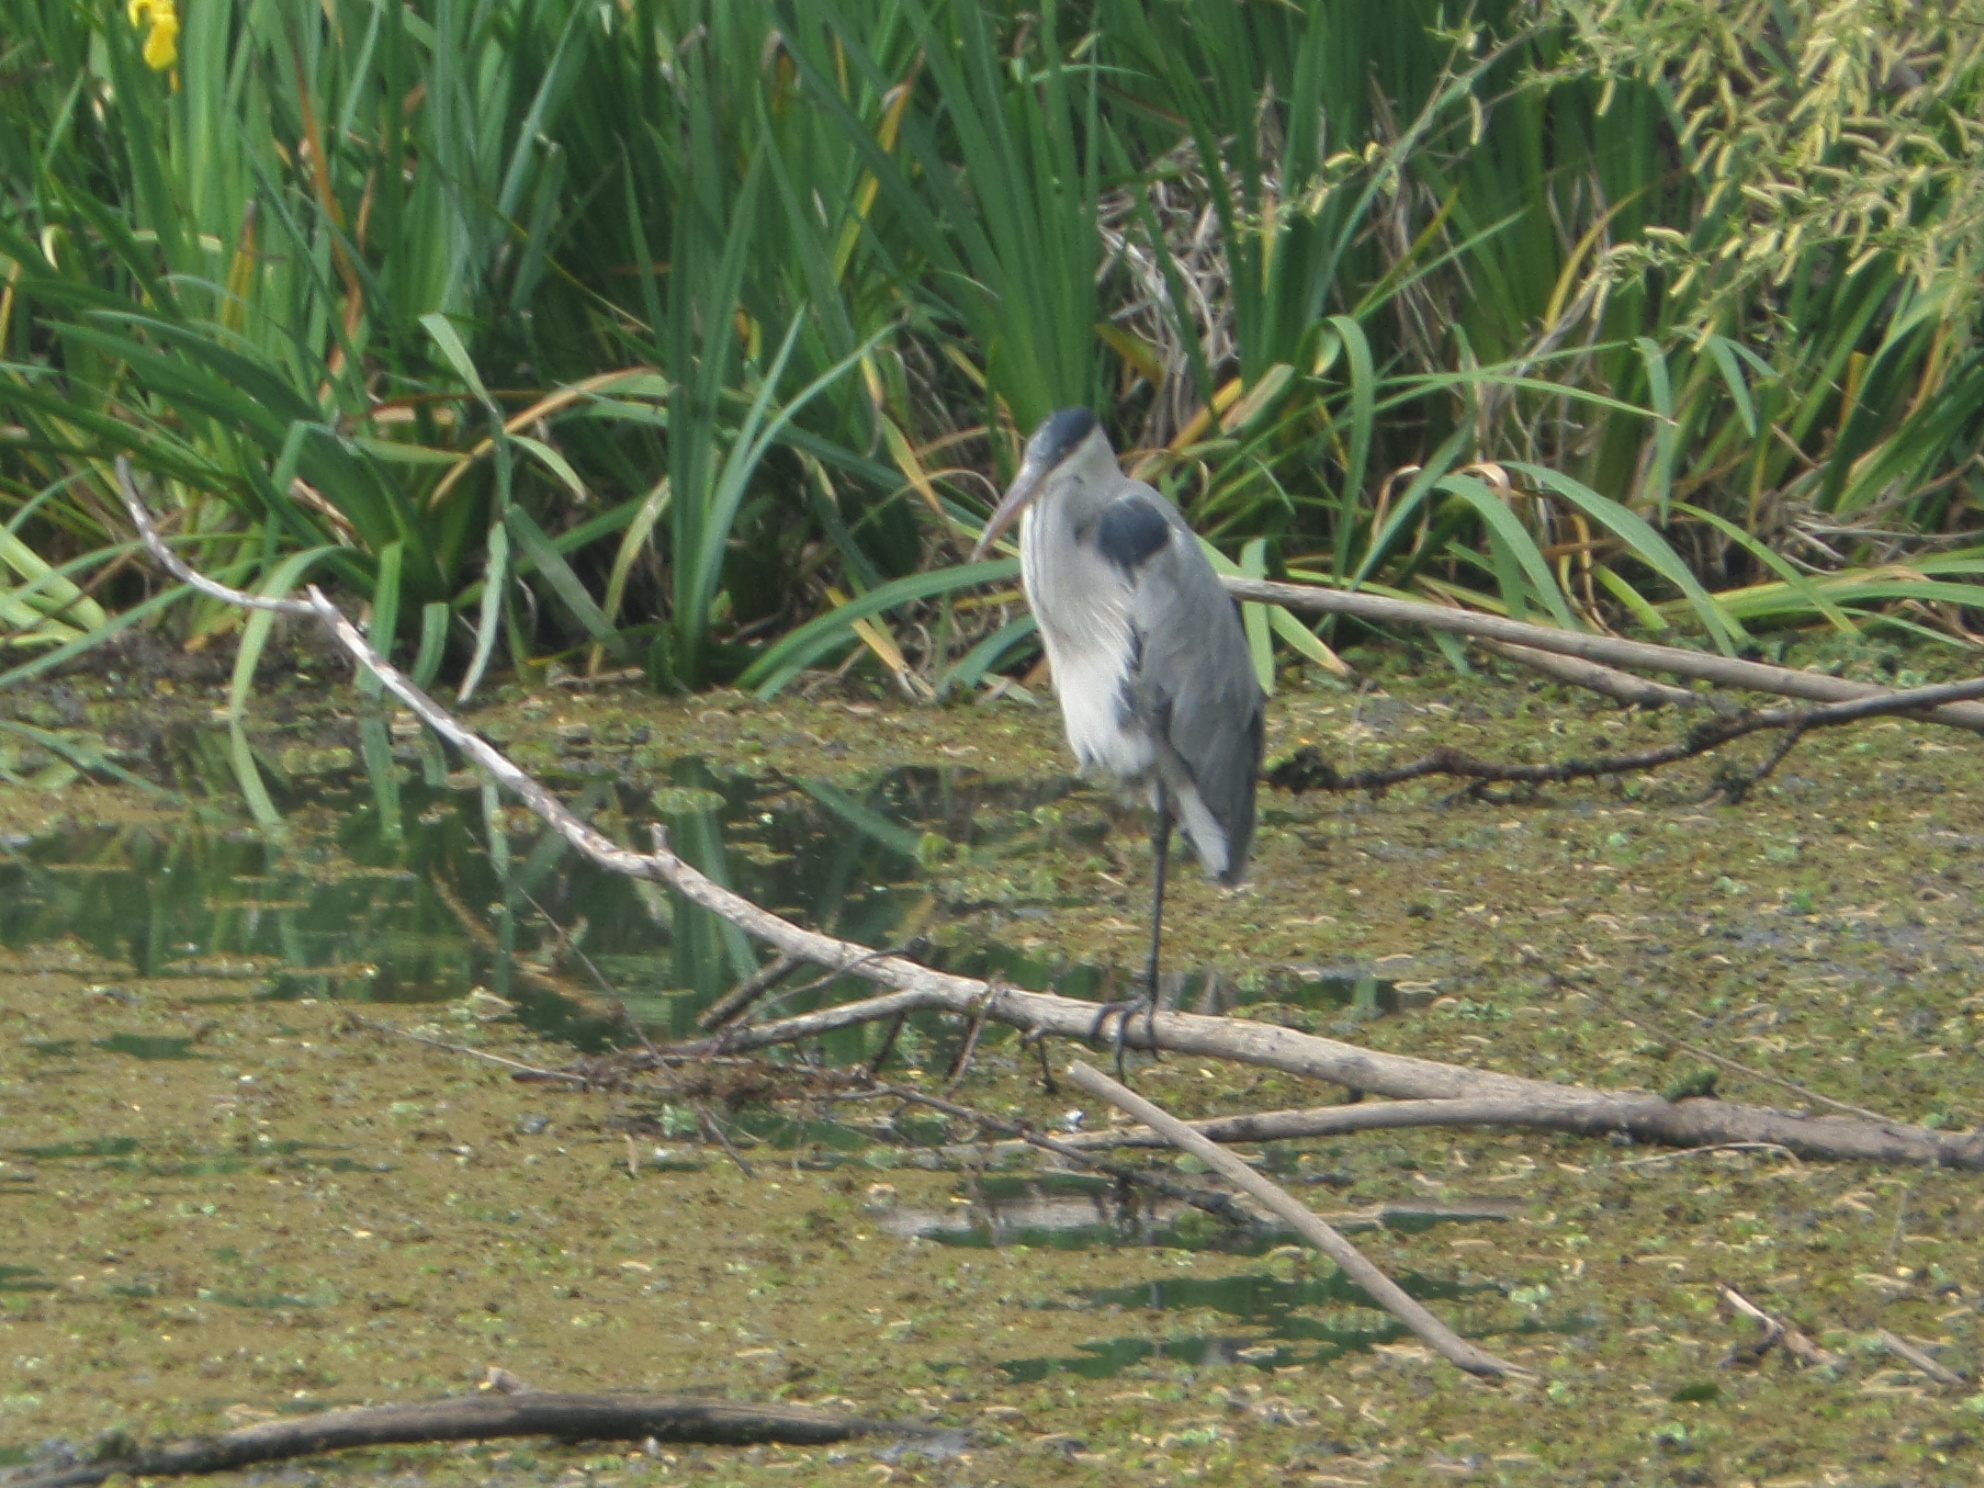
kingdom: Animalia
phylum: Chordata
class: Aves
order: Pelecaniformes
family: Ardeidae
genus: Ardea
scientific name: Ardea cocoi
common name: Cocoi heron
